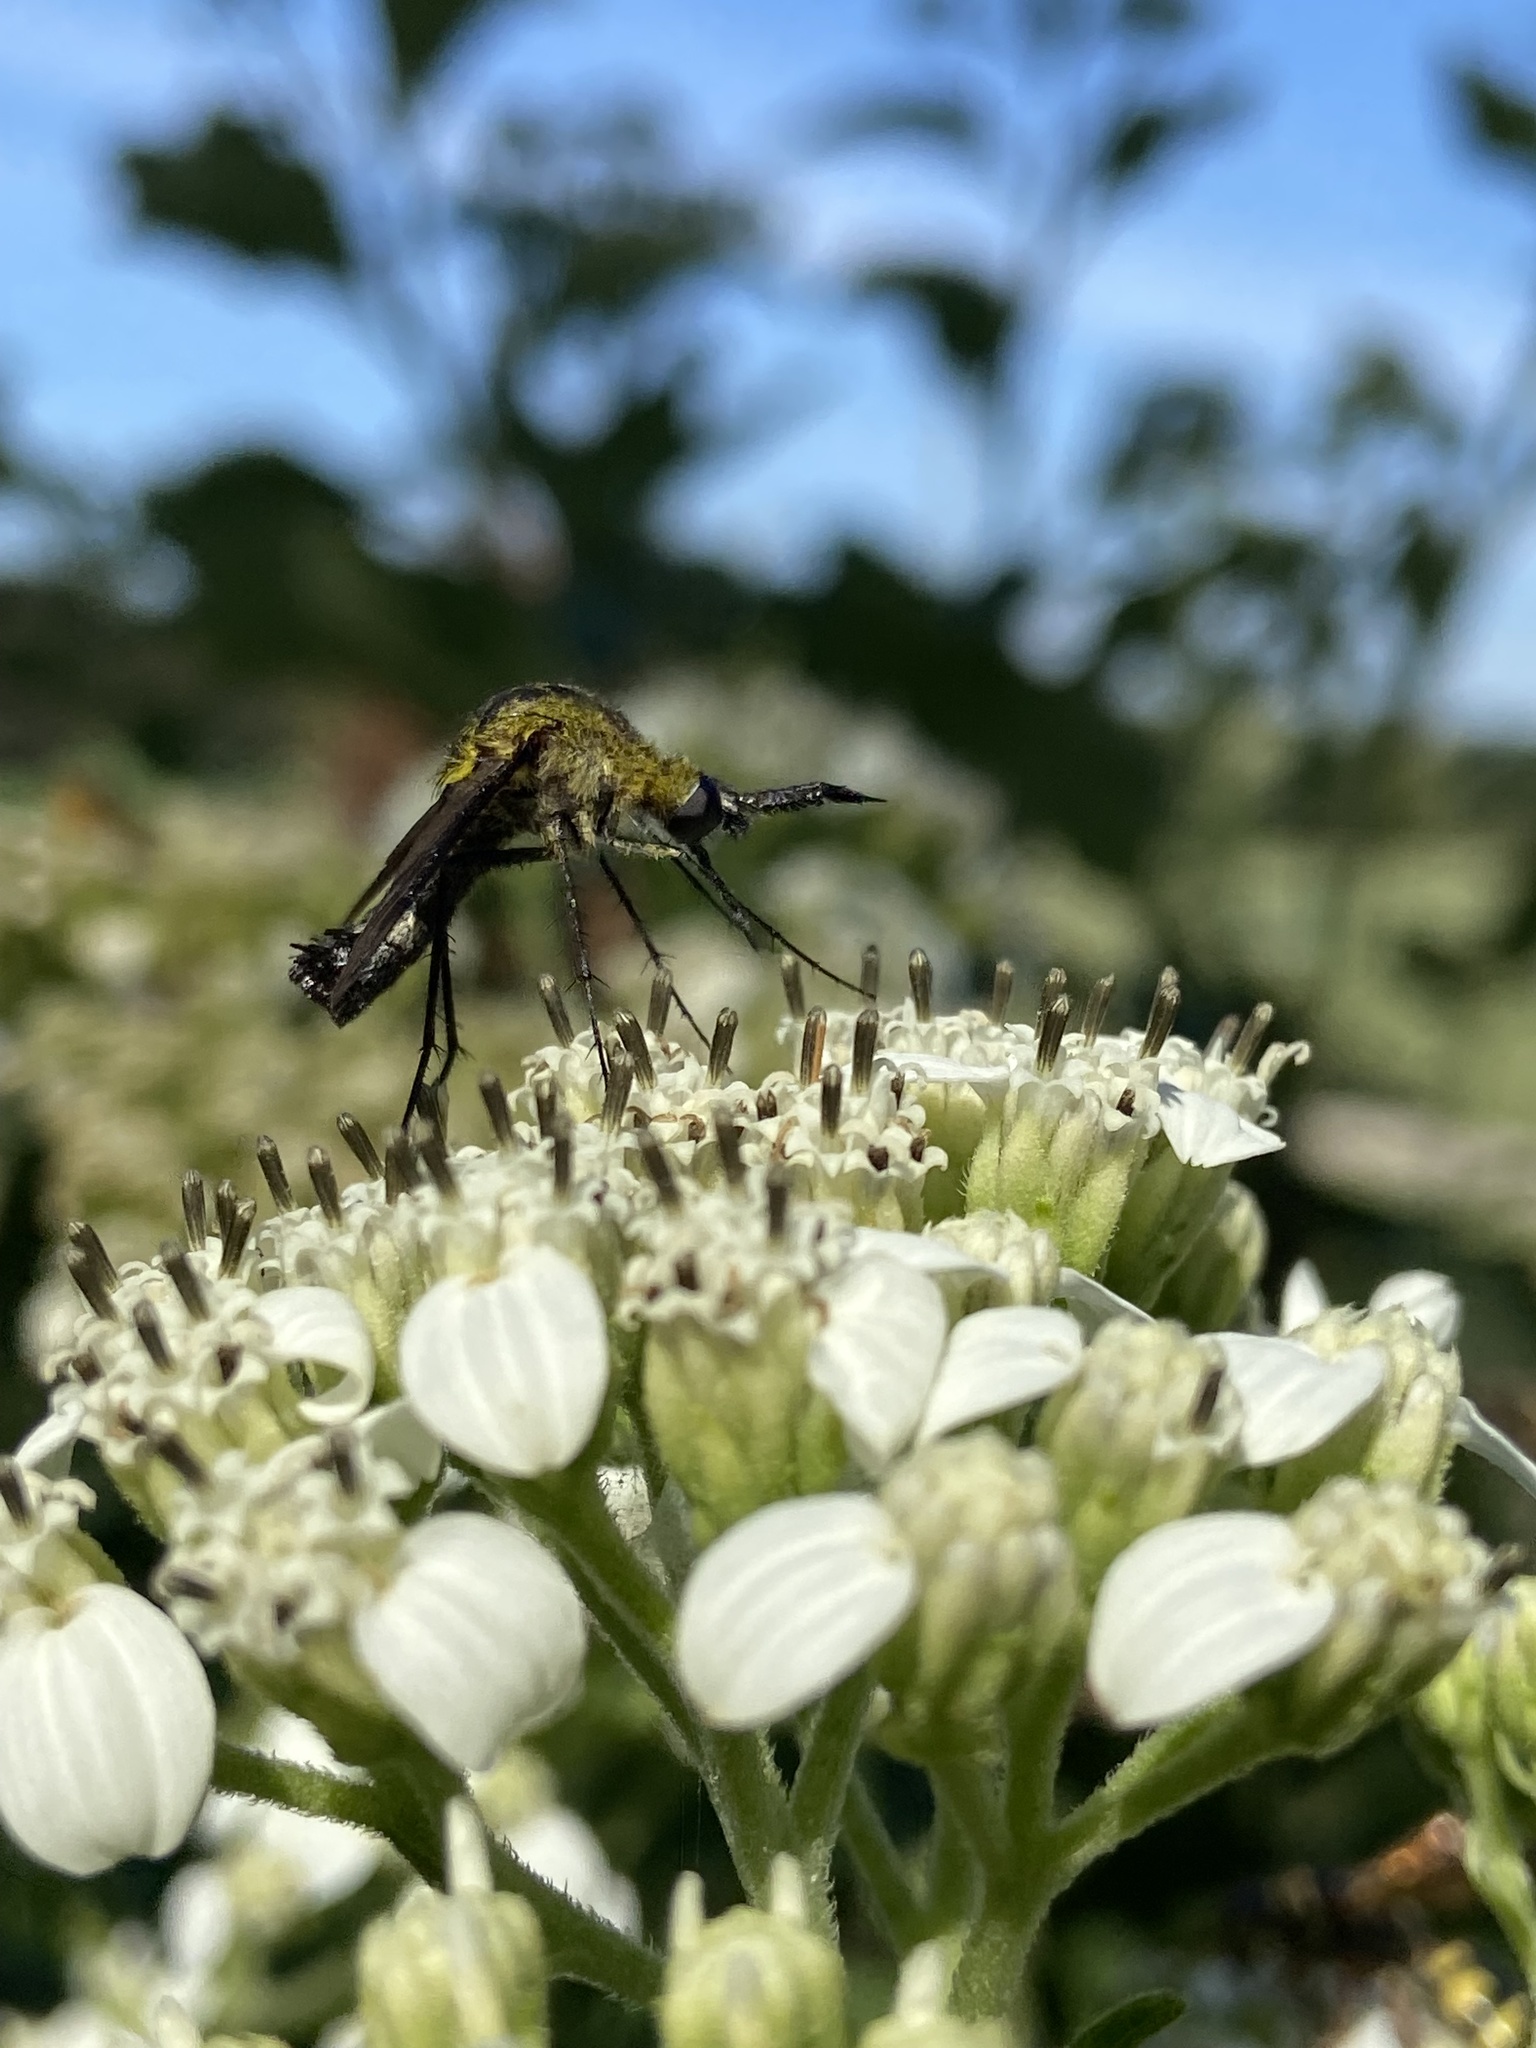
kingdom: Animalia
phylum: Arthropoda
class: Insecta
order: Diptera
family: Bombyliidae
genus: Lepidophora
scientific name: Lepidophora lepidocera
